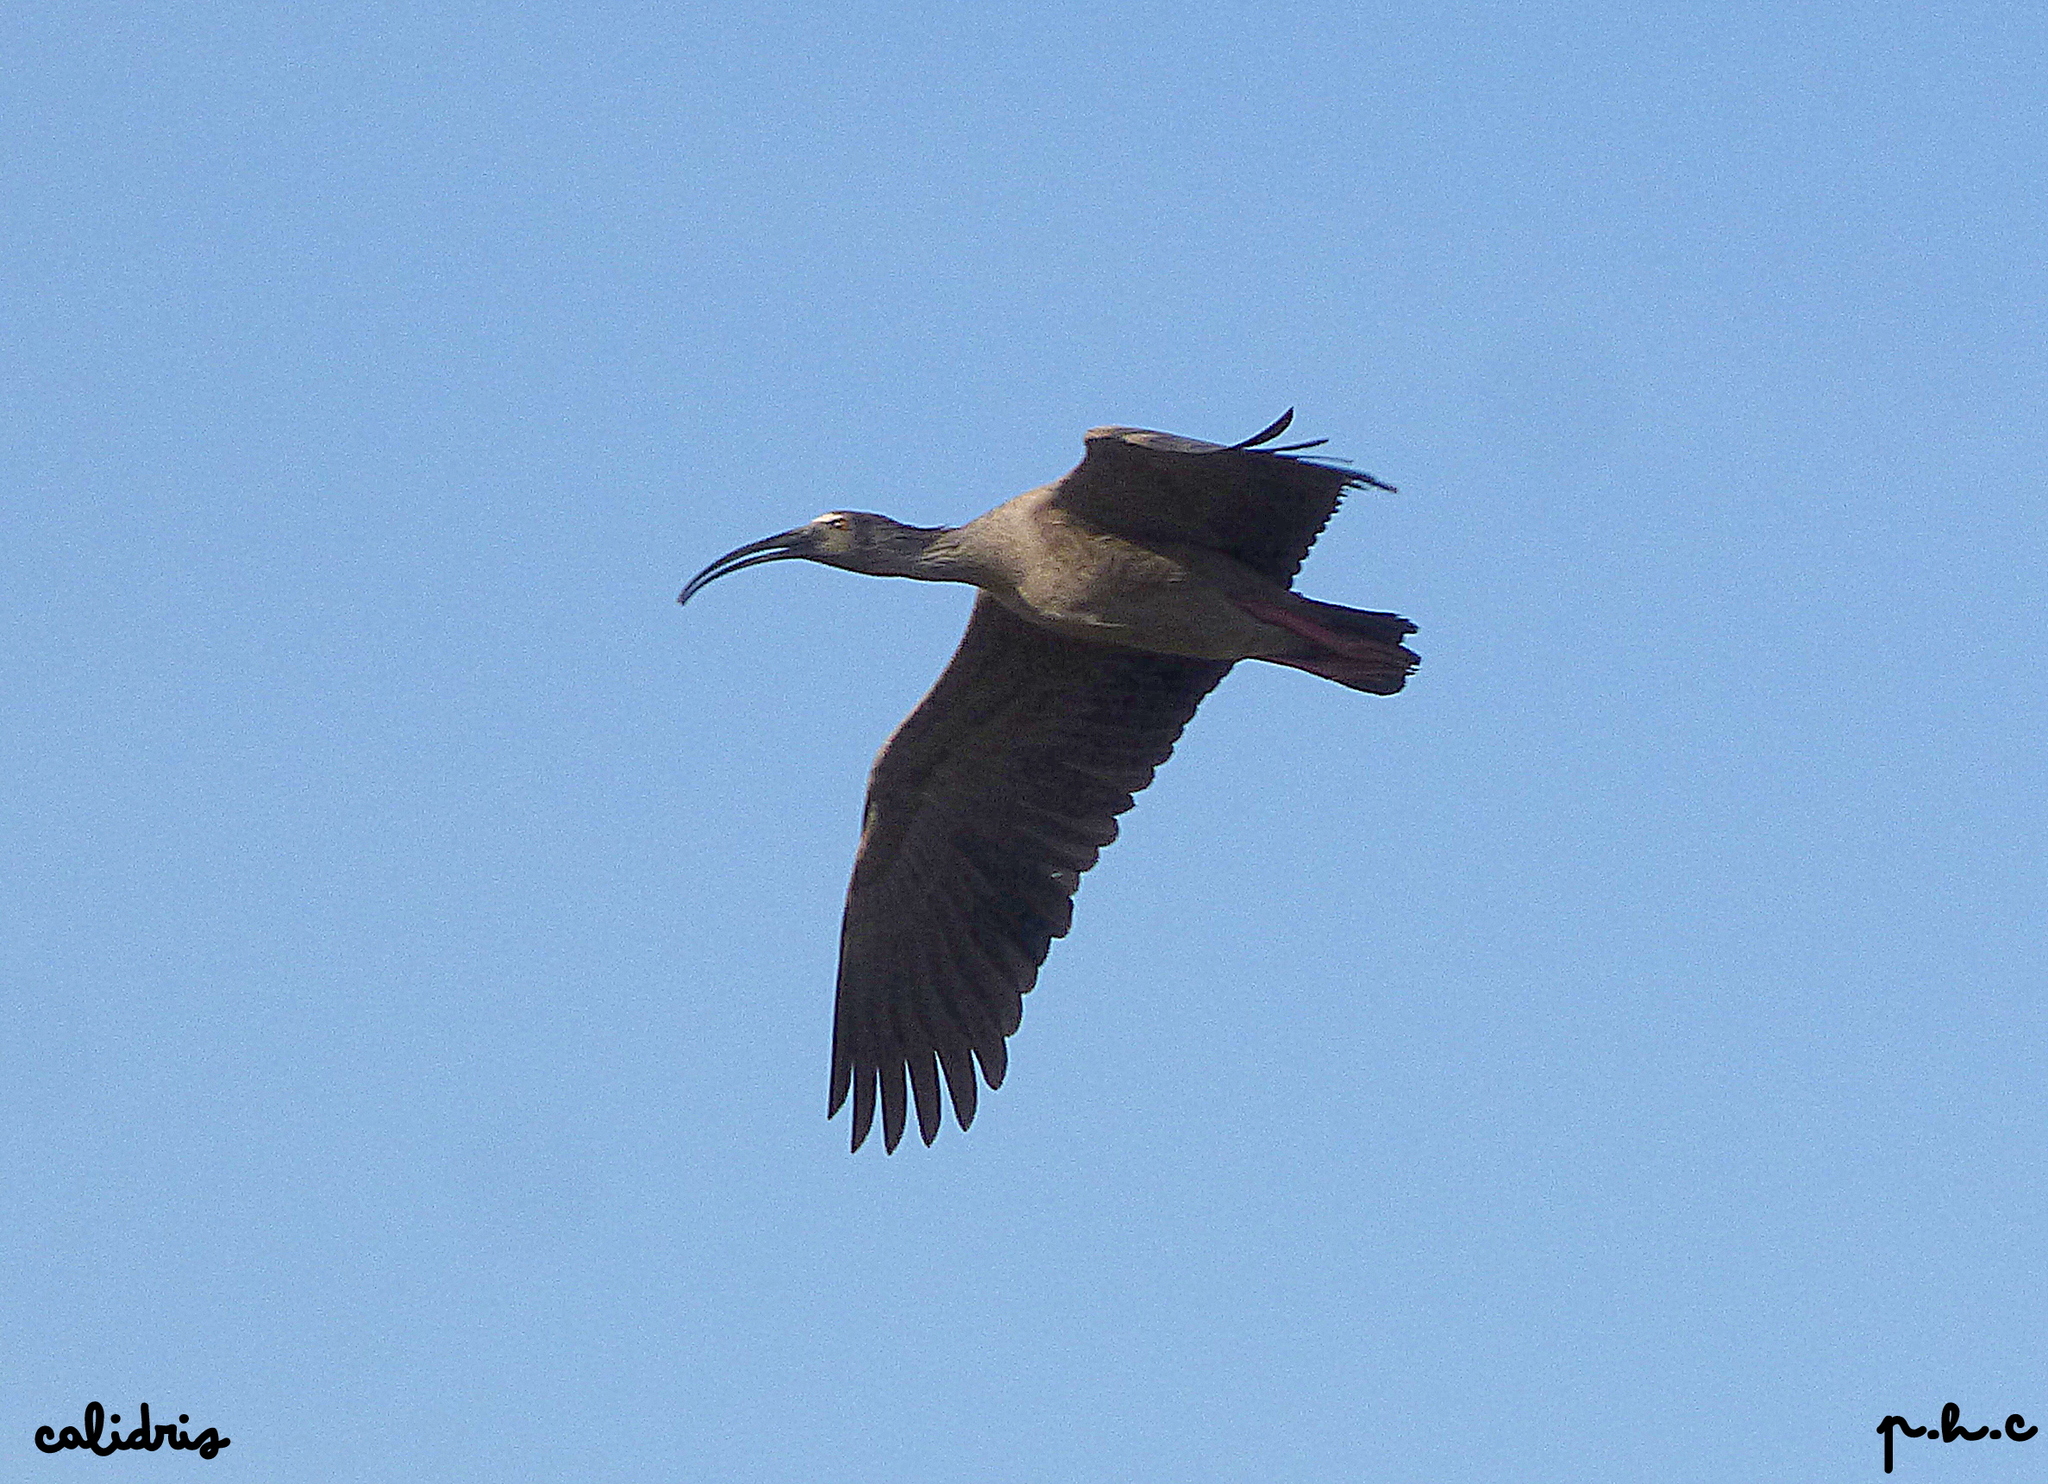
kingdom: Animalia
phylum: Chordata
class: Aves
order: Pelecaniformes
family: Threskiornithidae
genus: Theristicus
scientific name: Theristicus caerulescens
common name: Plumbeous ibis
